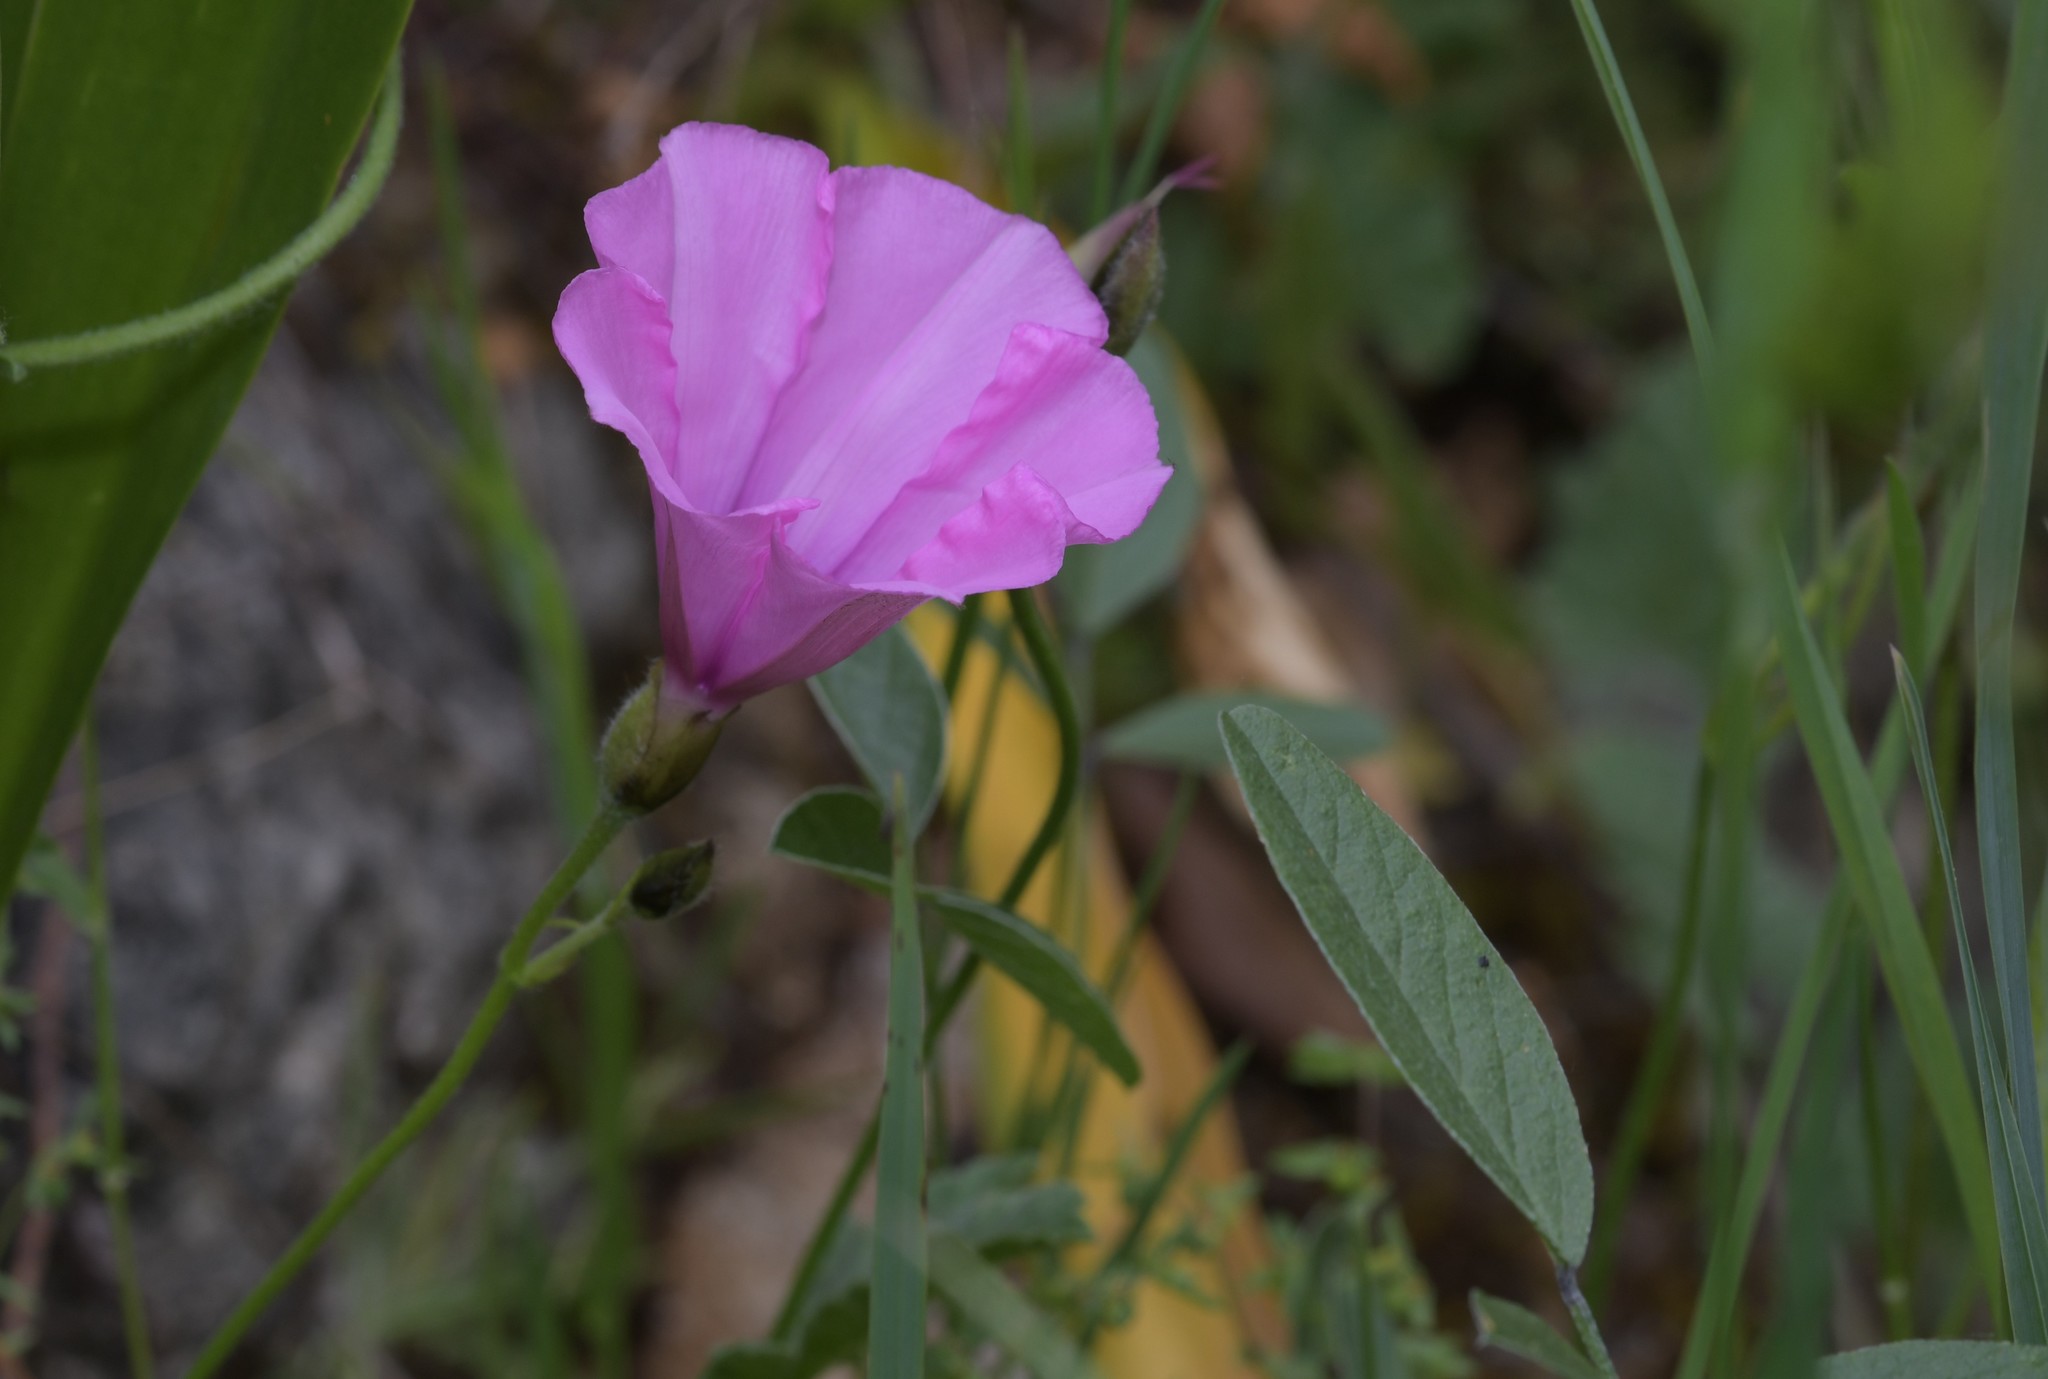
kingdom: Plantae
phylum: Tracheophyta
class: Magnoliopsida
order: Solanales
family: Convolvulaceae
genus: Convolvulus
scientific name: Convolvulus althaeoides
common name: Mallow bindweed
